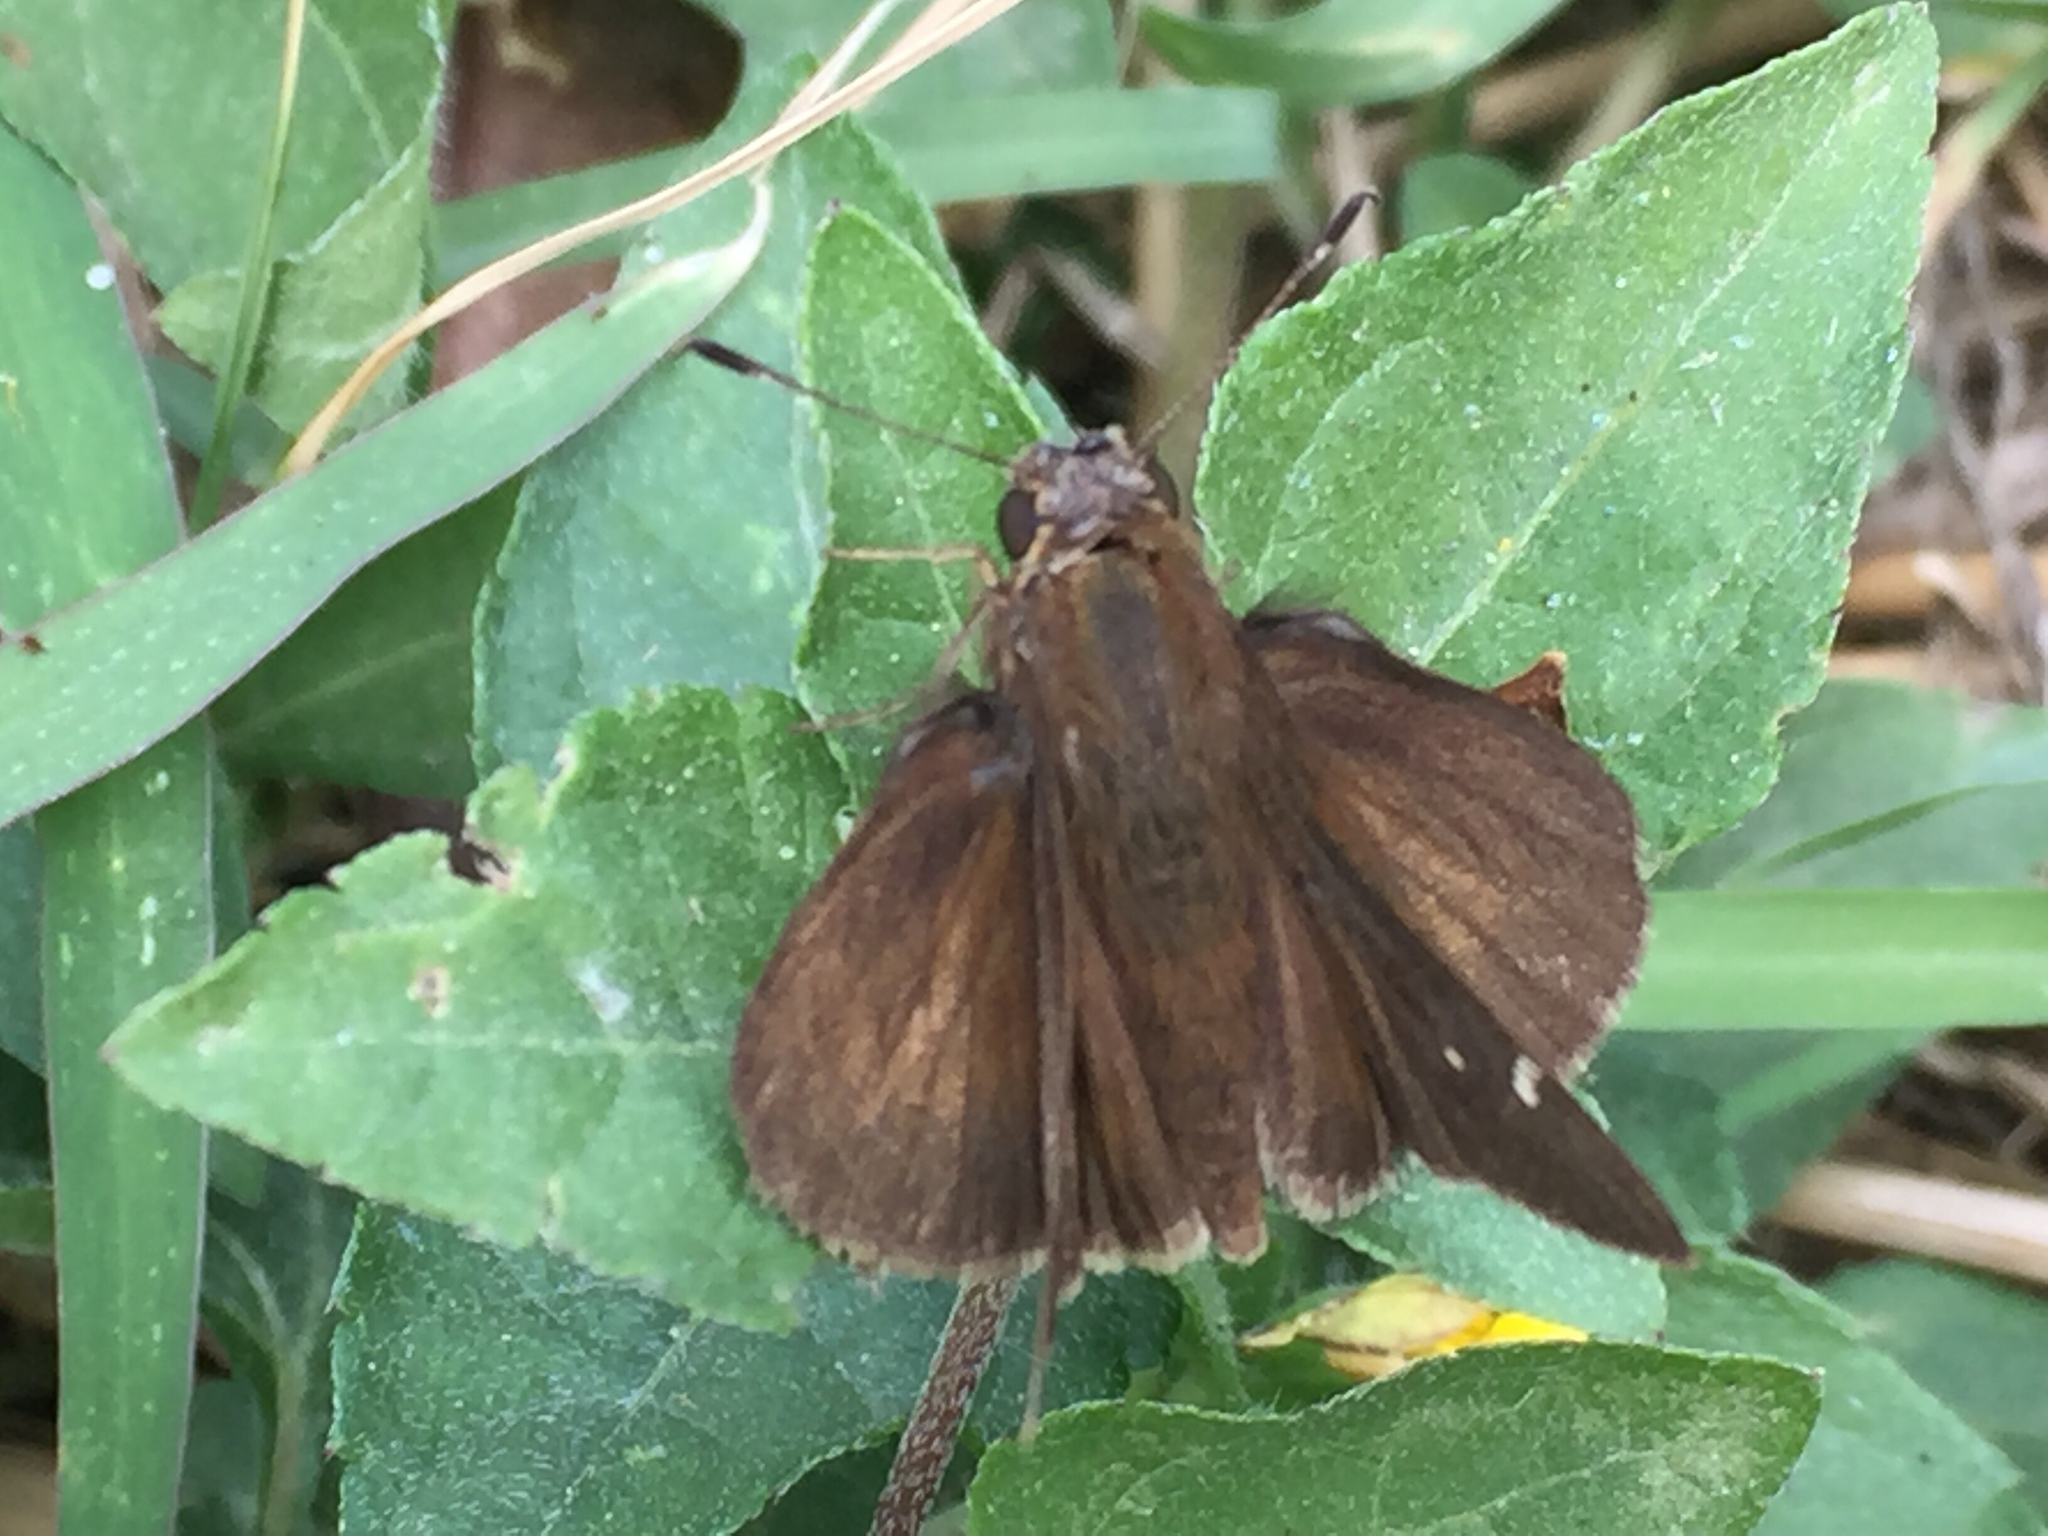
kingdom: Animalia
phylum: Arthropoda
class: Insecta
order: Lepidoptera
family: Hesperiidae
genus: Lerema
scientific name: Lerema accius
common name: Clouded skipper
